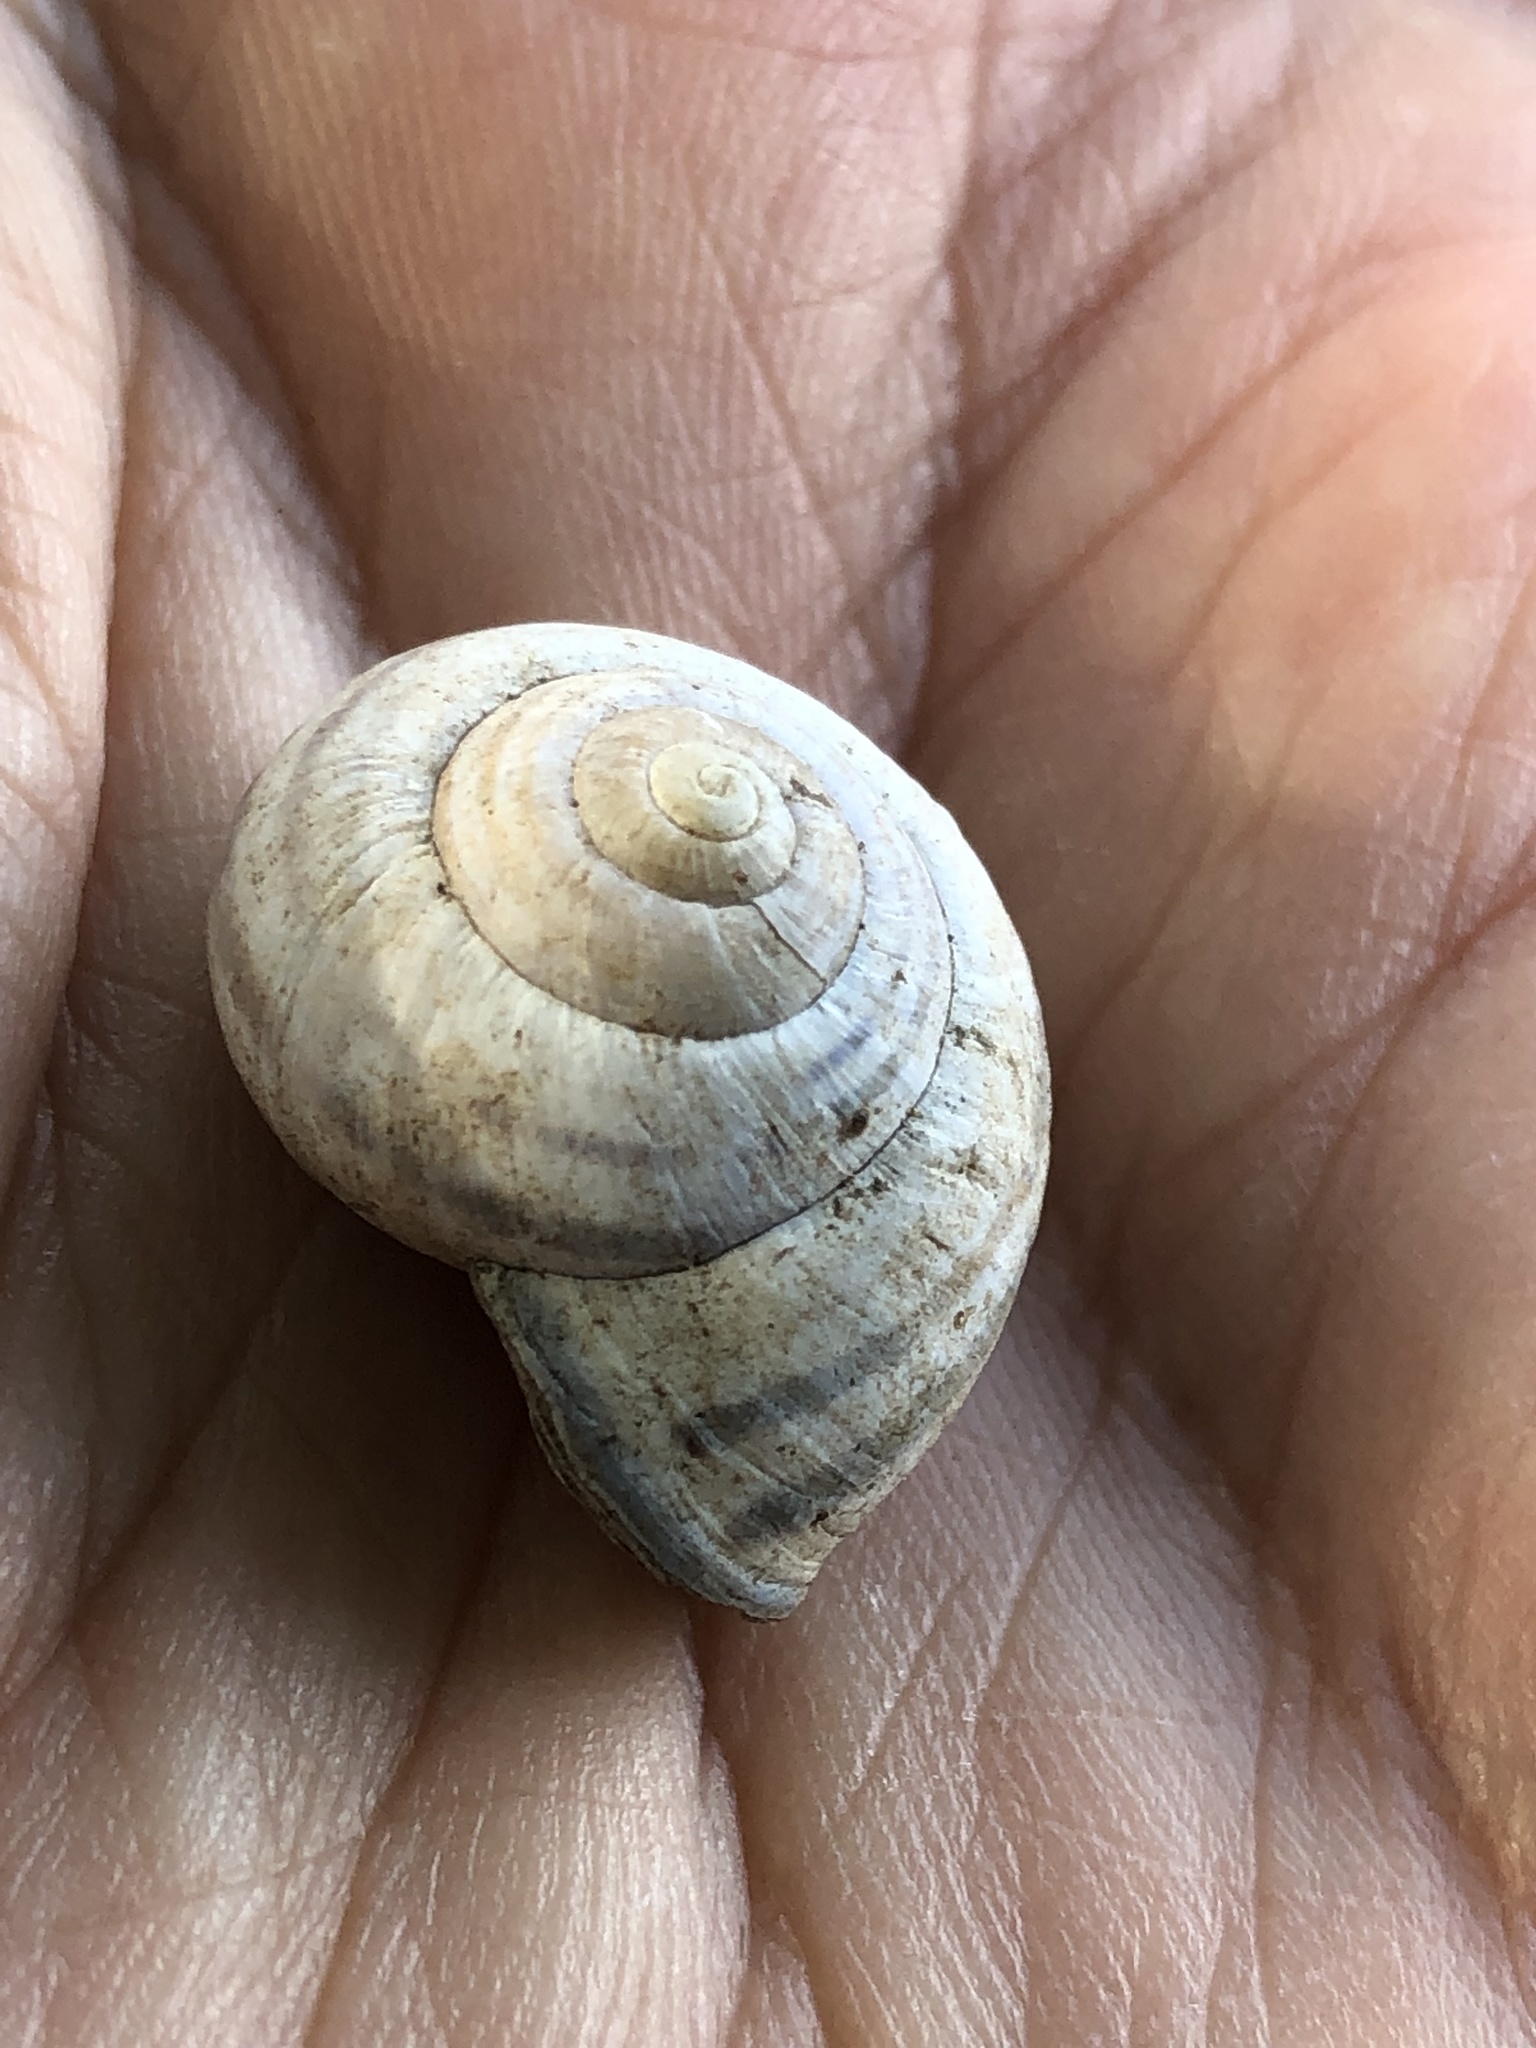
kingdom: Animalia
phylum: Mollusca
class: Gastropoda
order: Stylommatophora
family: Helicidae
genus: Cepaea
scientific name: Cepaea nemoralis
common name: Grovesnail
